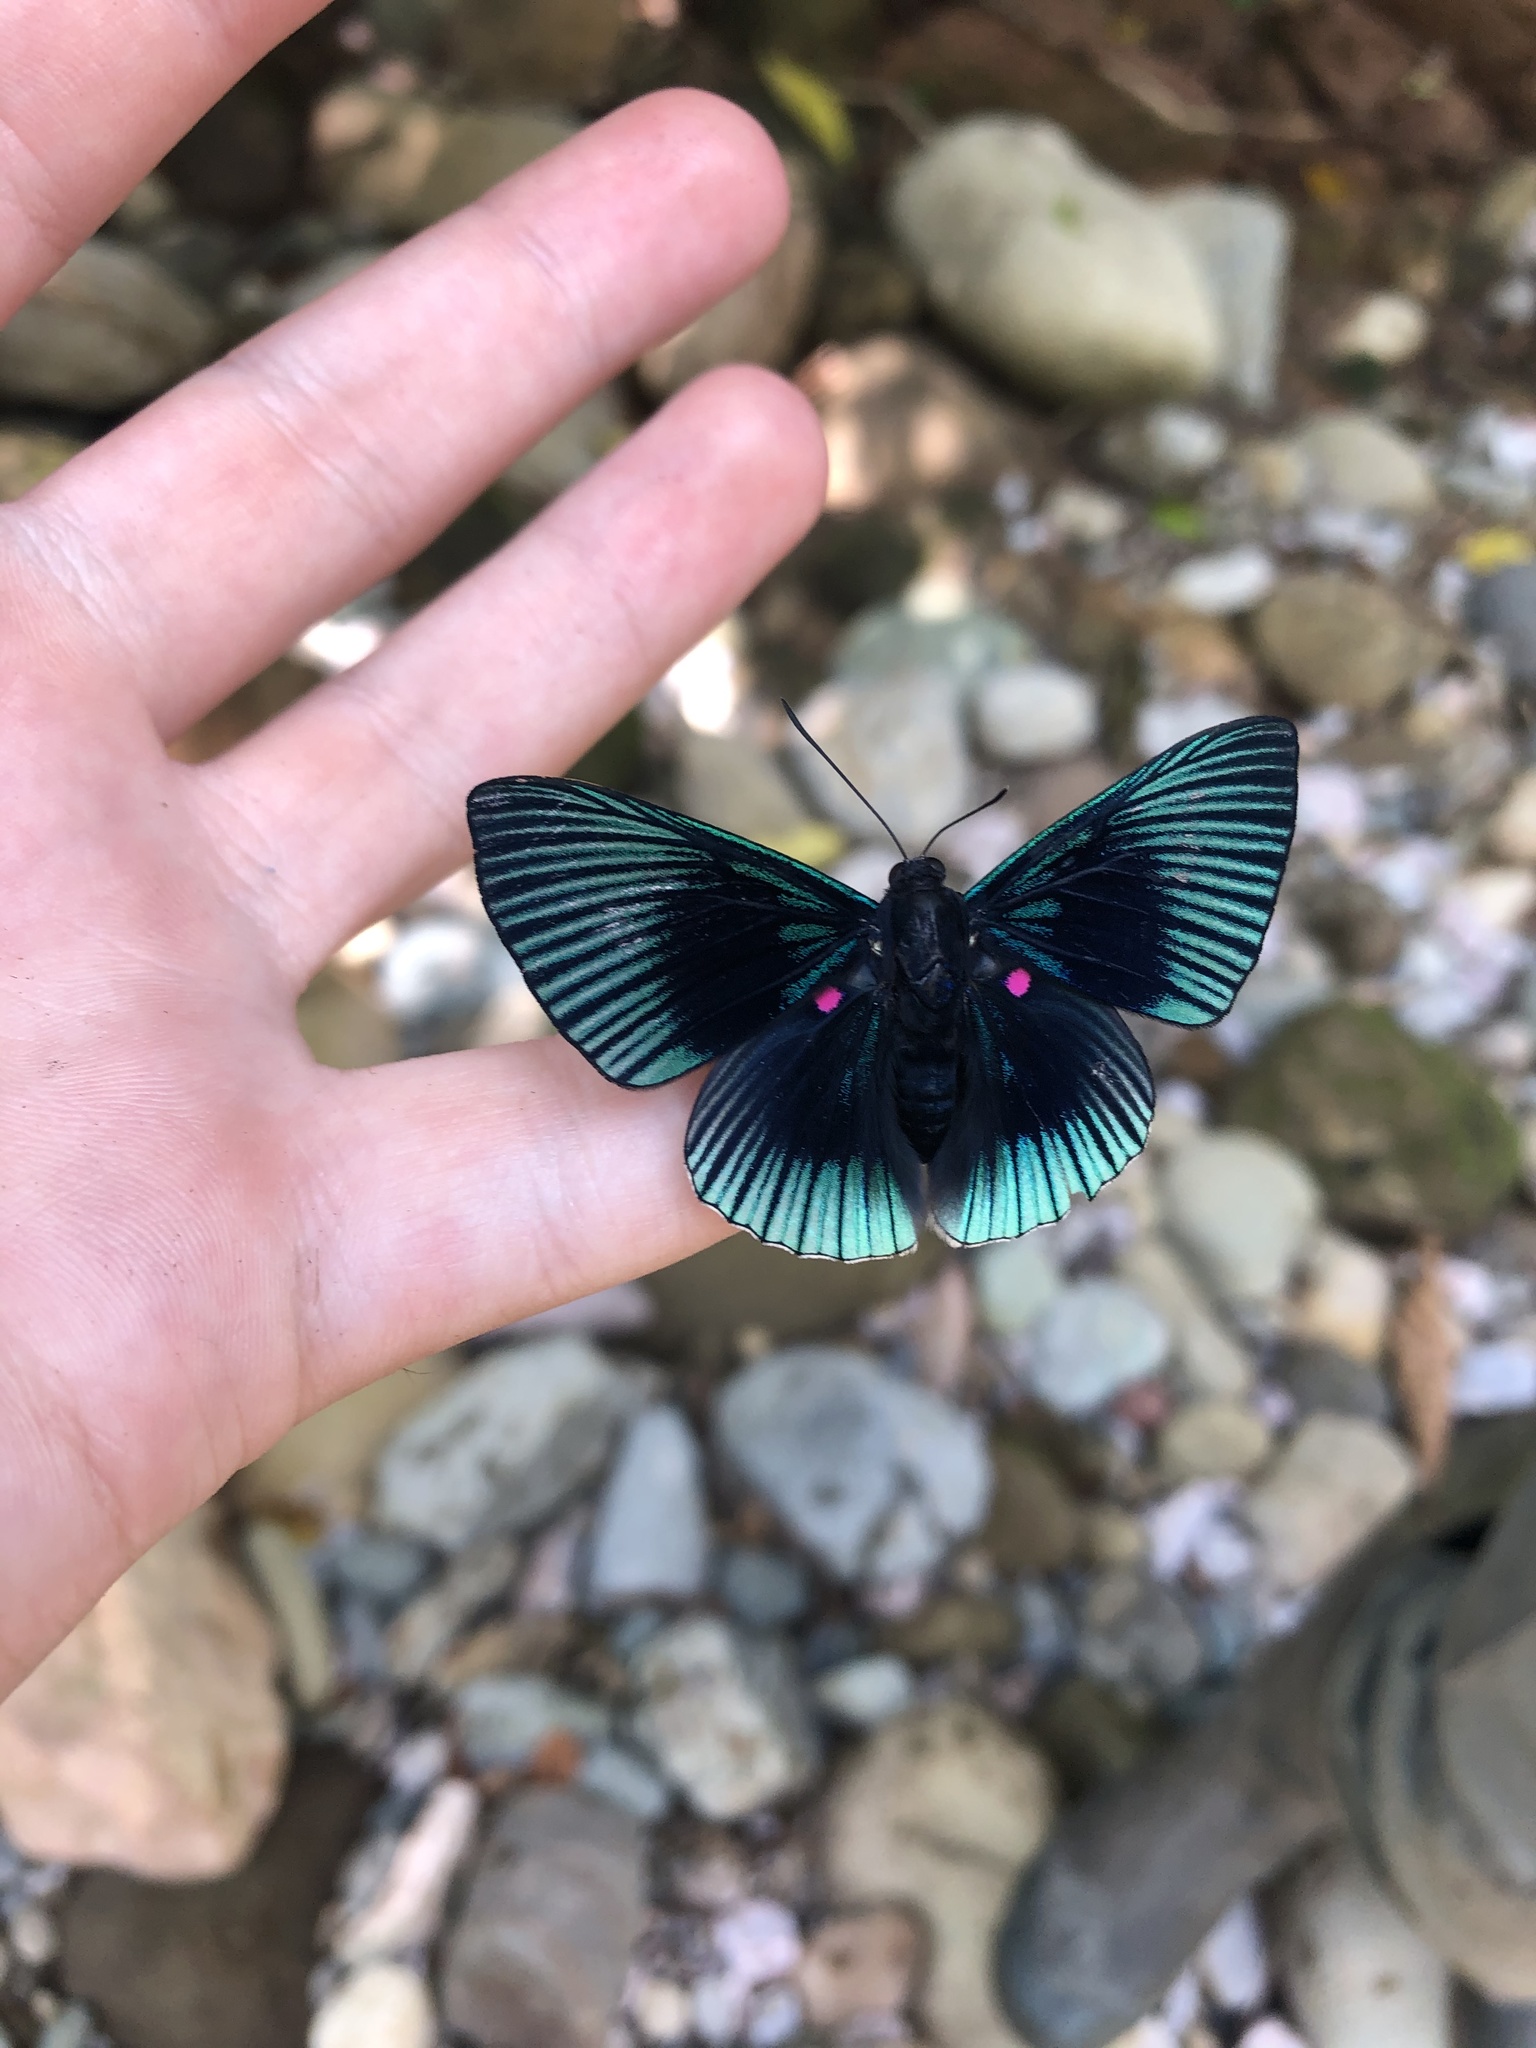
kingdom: Animalia
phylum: Arthropoda
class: Insecta
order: Lepidoptera
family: Riodinidae
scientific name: Riodinidae
